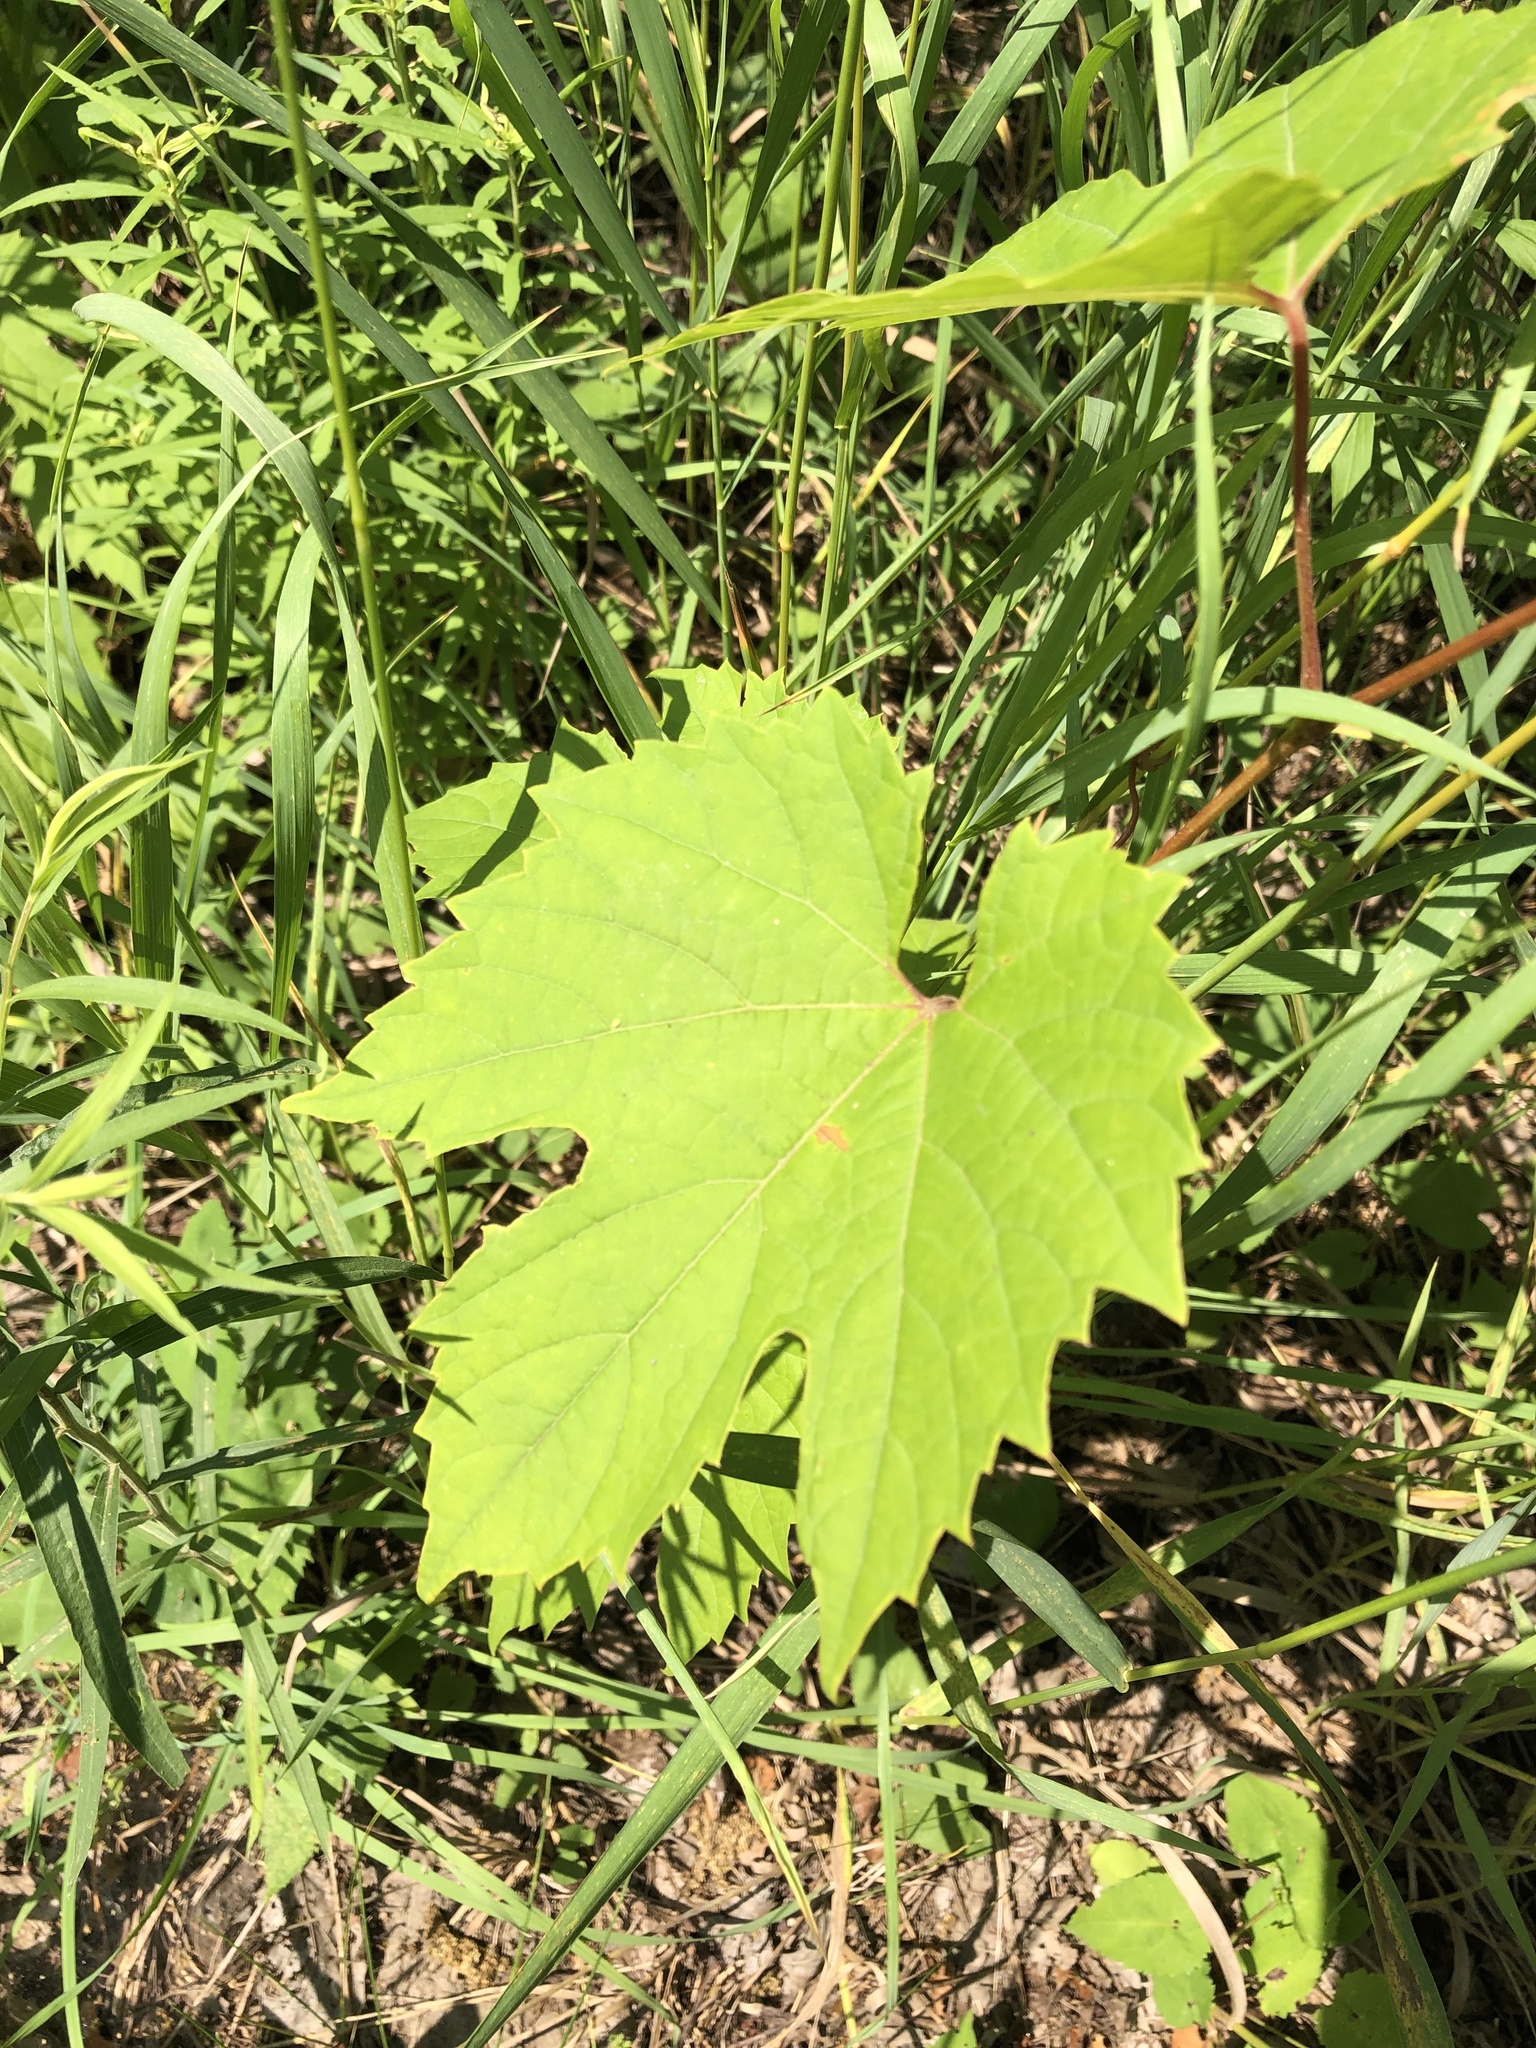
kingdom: Plantae
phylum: Tracheophyta
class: Magnoliopsida
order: Vitales
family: Vitaceae
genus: Vitis
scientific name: Vitis riparia
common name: Frost grape
